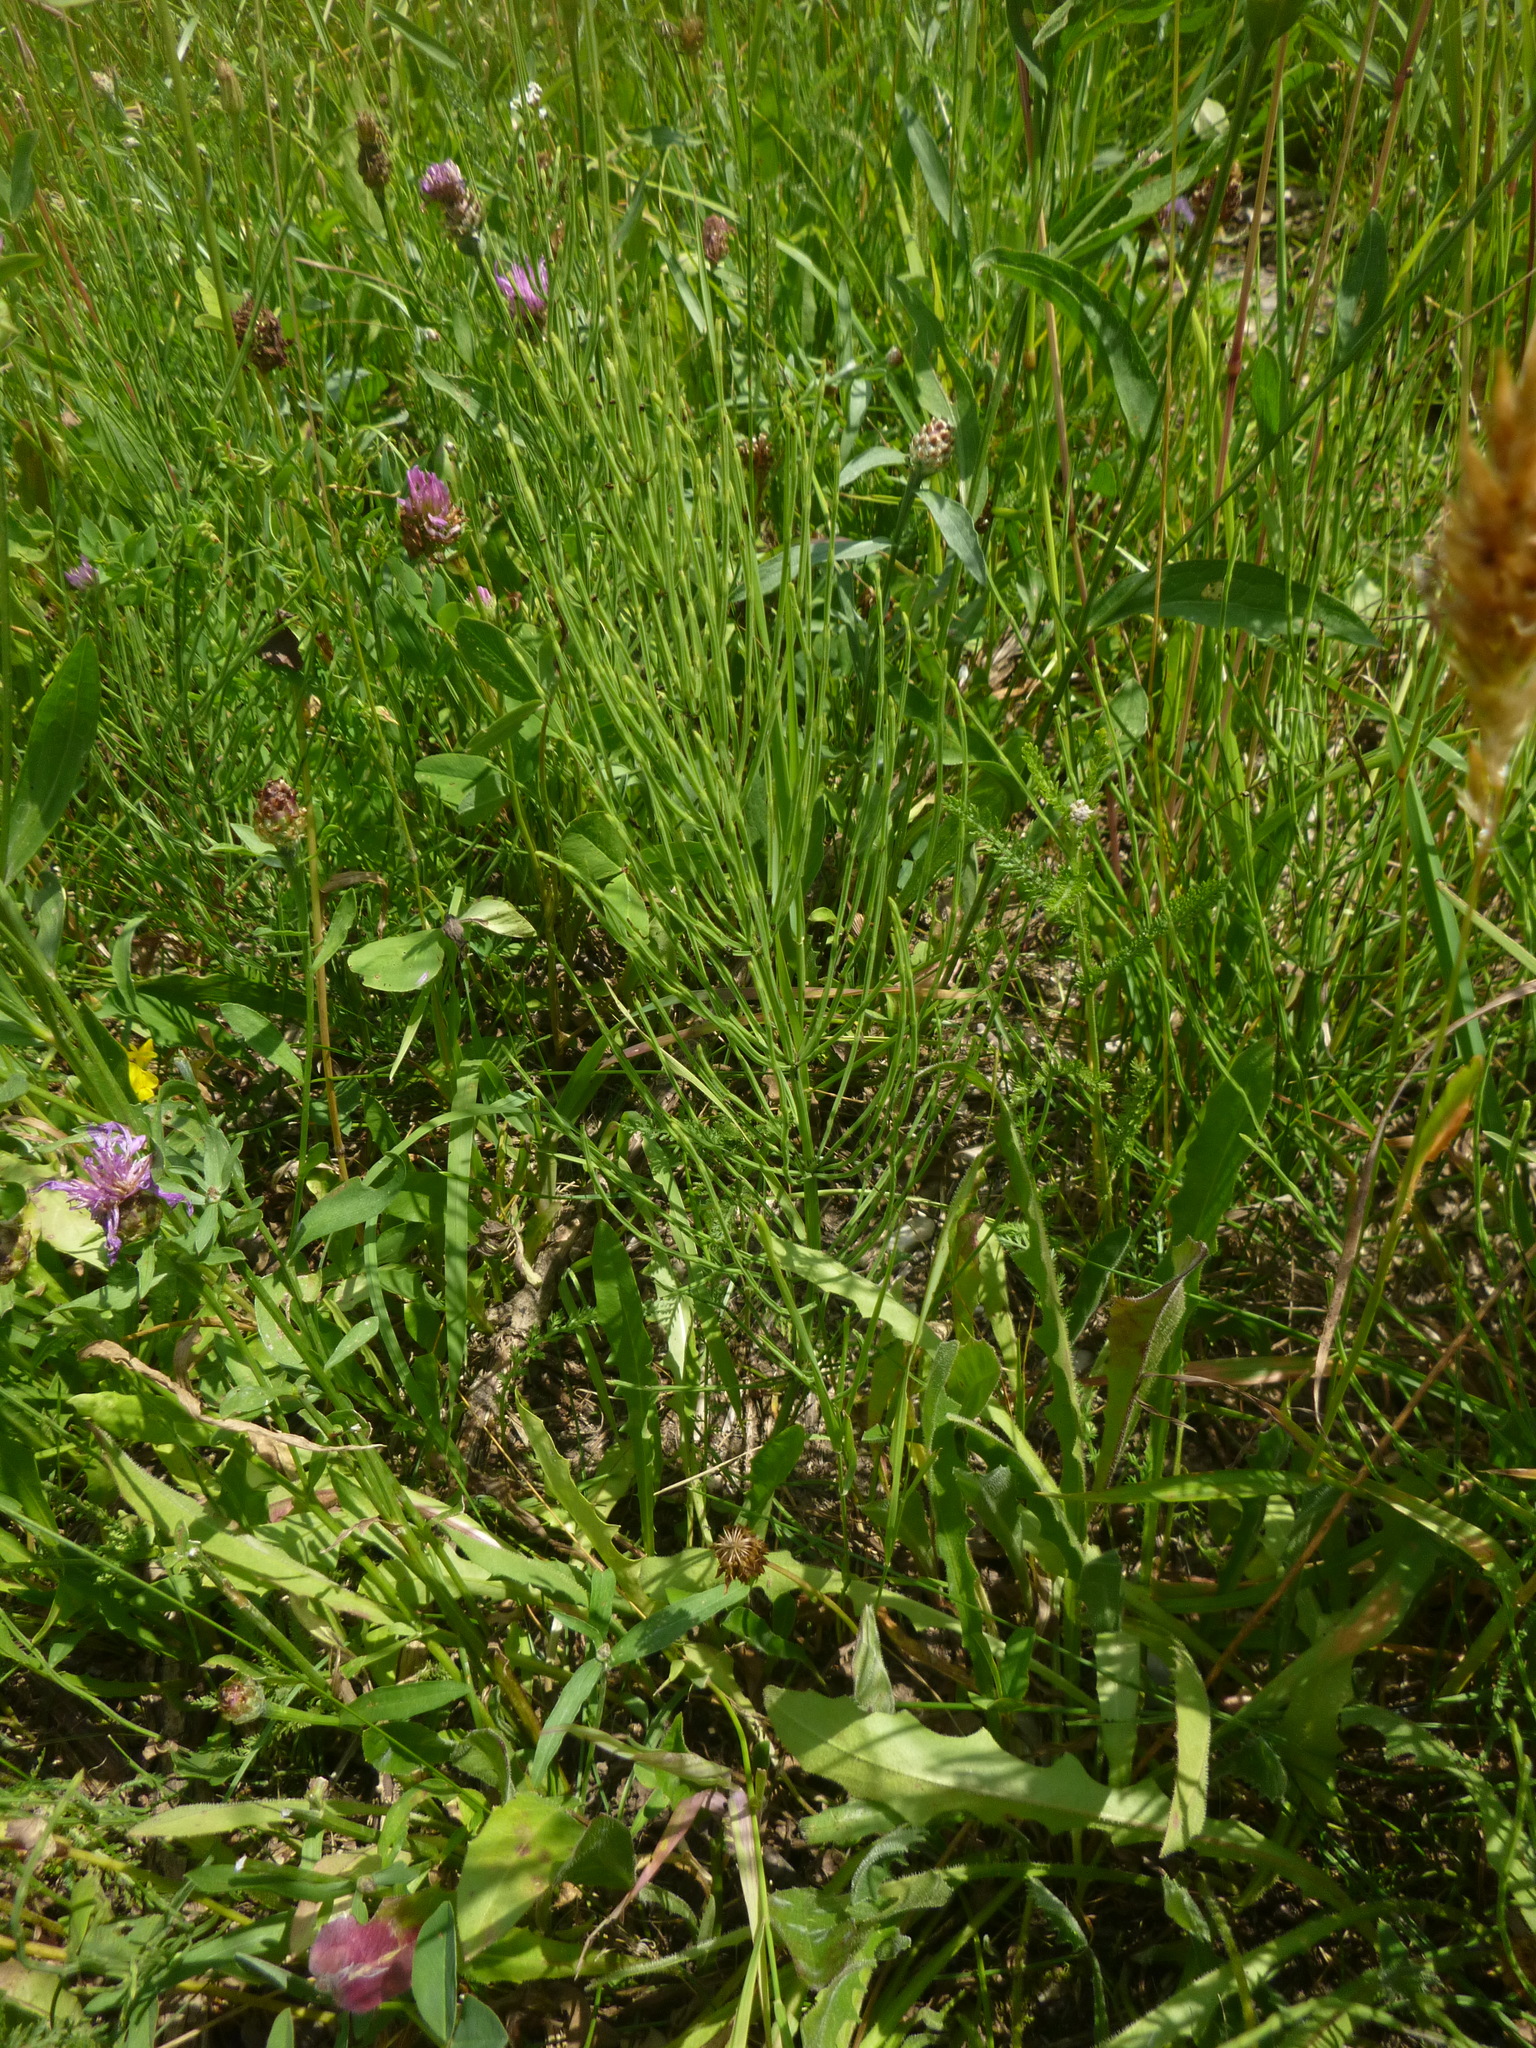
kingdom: Plantae
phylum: Tracheophyta
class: Polypodiopsida
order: Equisetales
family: Equisetaceae
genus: Equisetum
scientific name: Equisetum arvense
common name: Field horsetail
